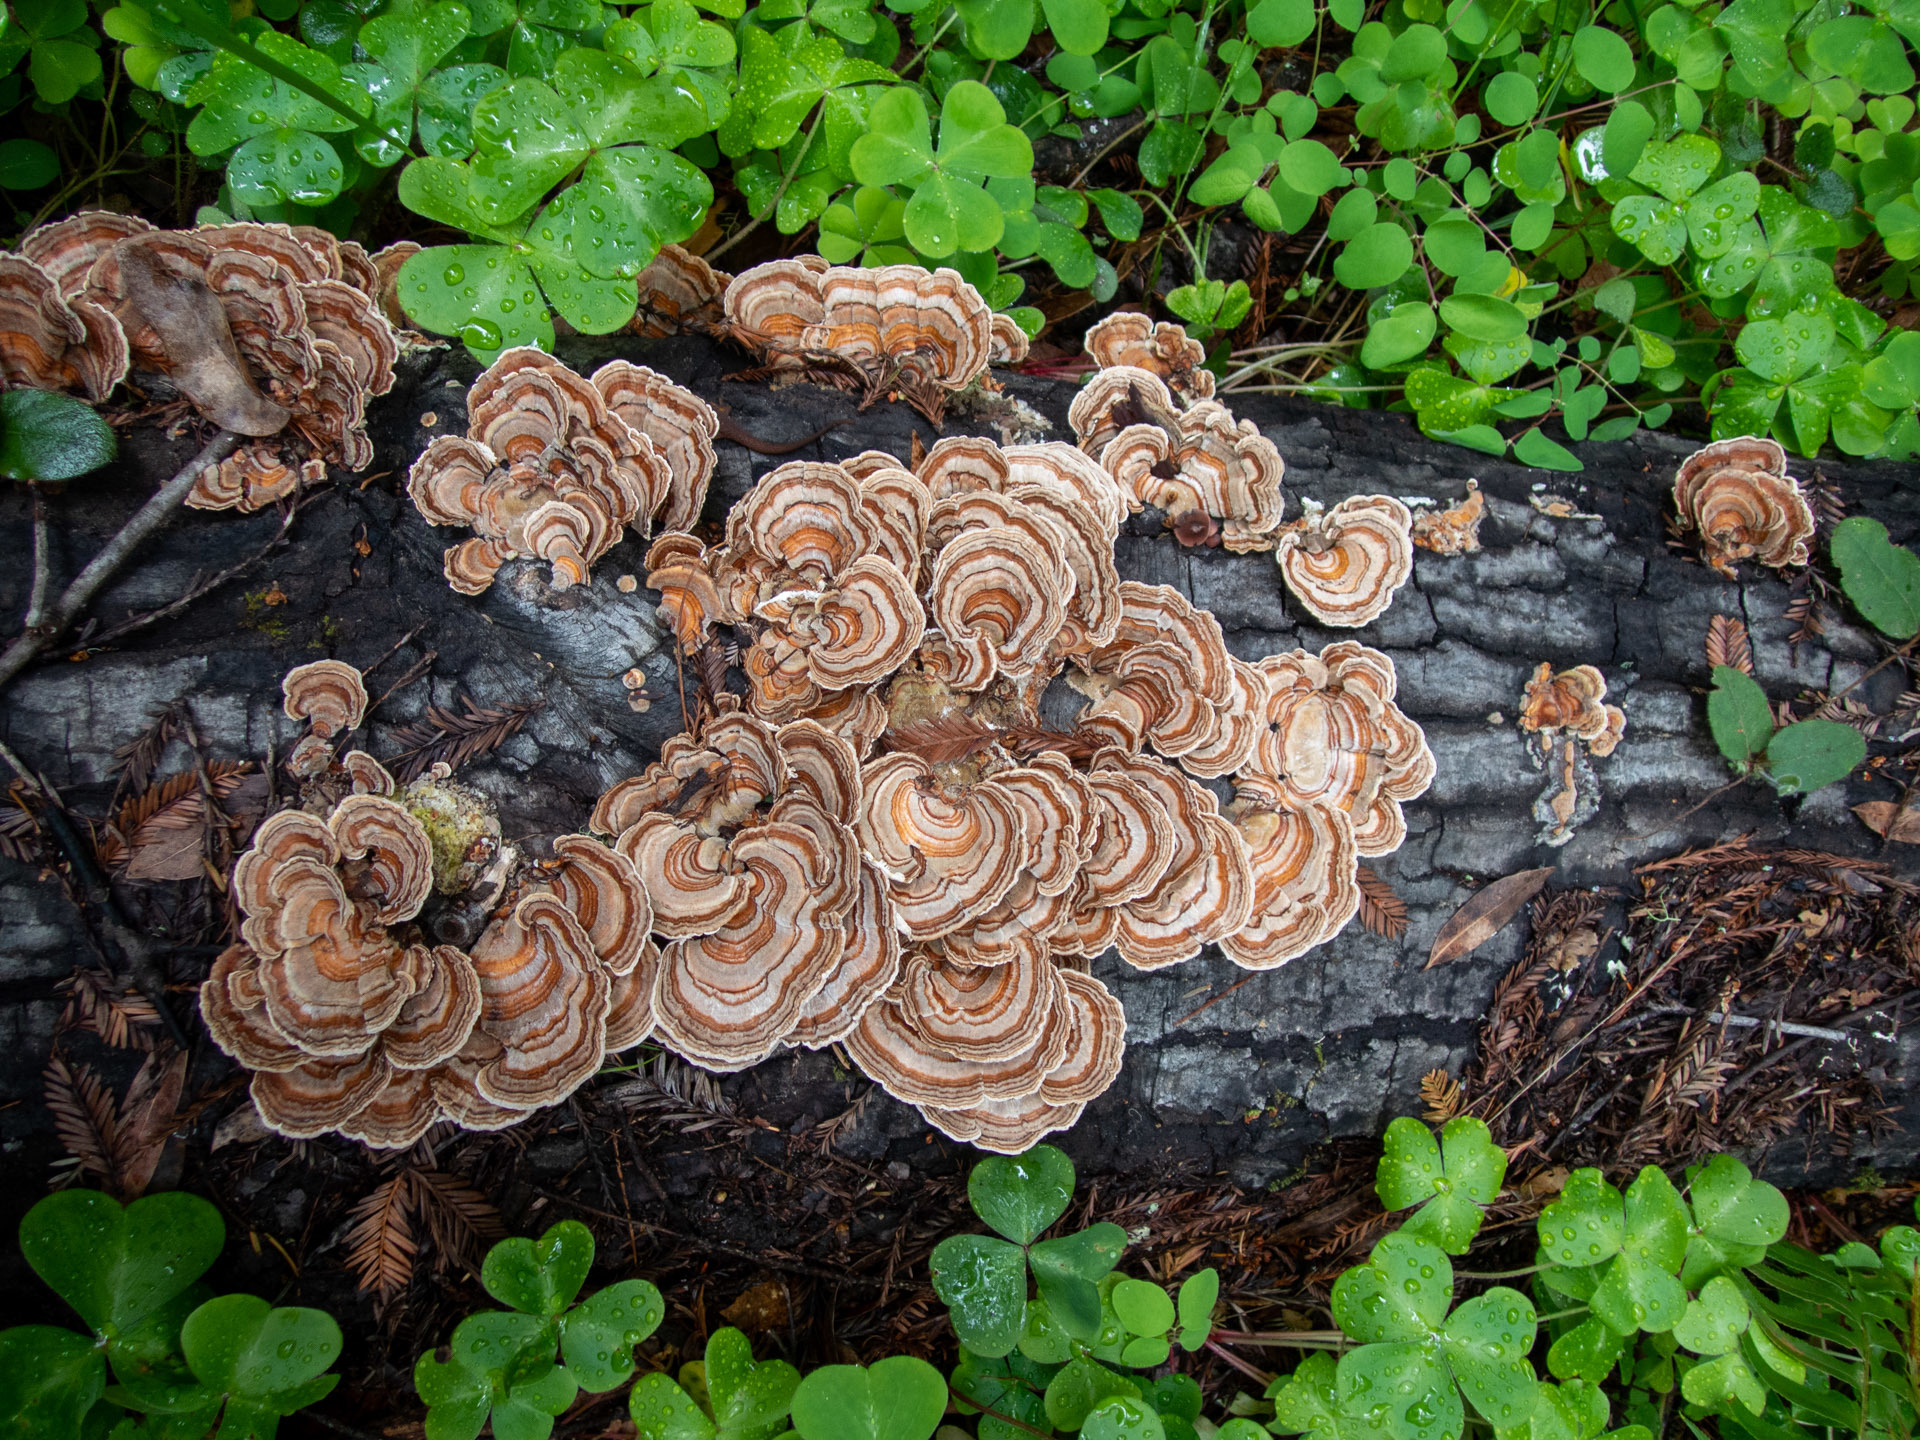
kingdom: Fungi
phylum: Basidiomycota
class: Agaricomycetes
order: Polyporales
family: Polyporaceae
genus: Trametes
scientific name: Trametes versicolor
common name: Turkeytail
